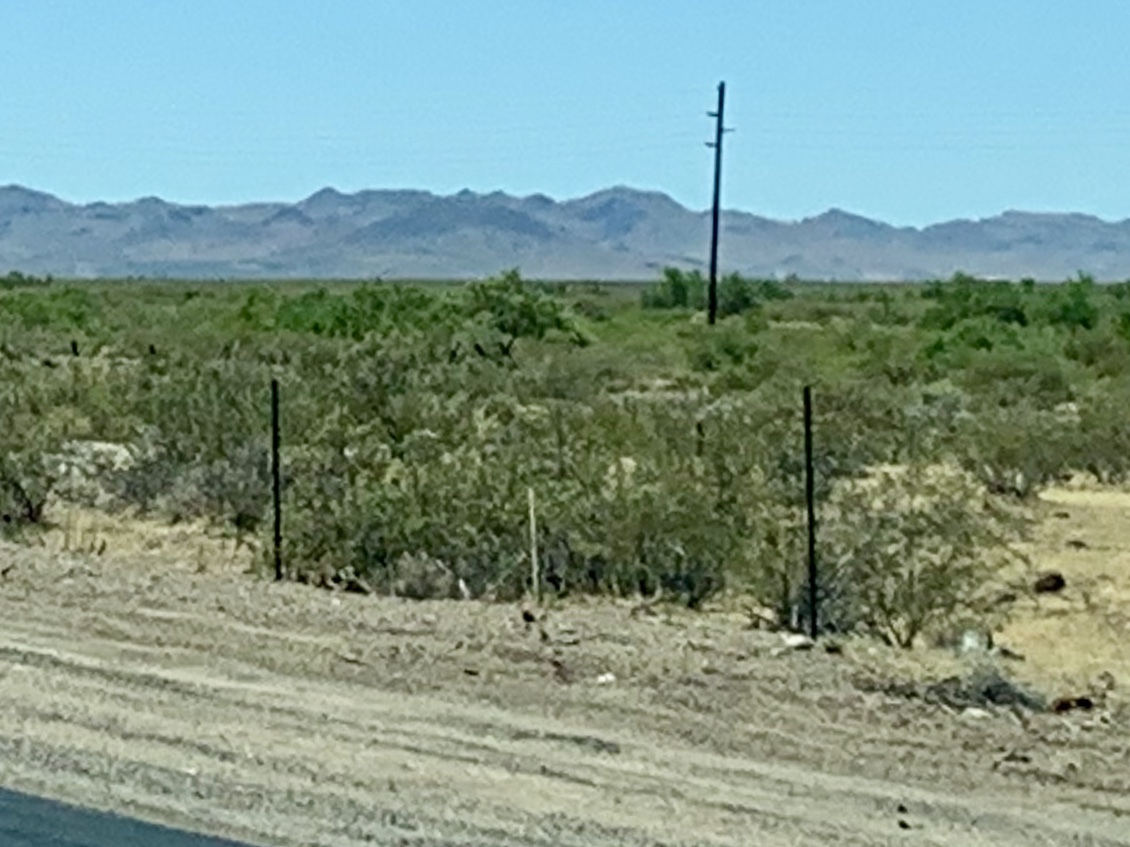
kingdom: Plantae
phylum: Tracheophyta
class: Magnoliopsida
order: Zygophyllales
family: Zygophyllaceae
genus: Larrea
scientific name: Larrea tridentata
